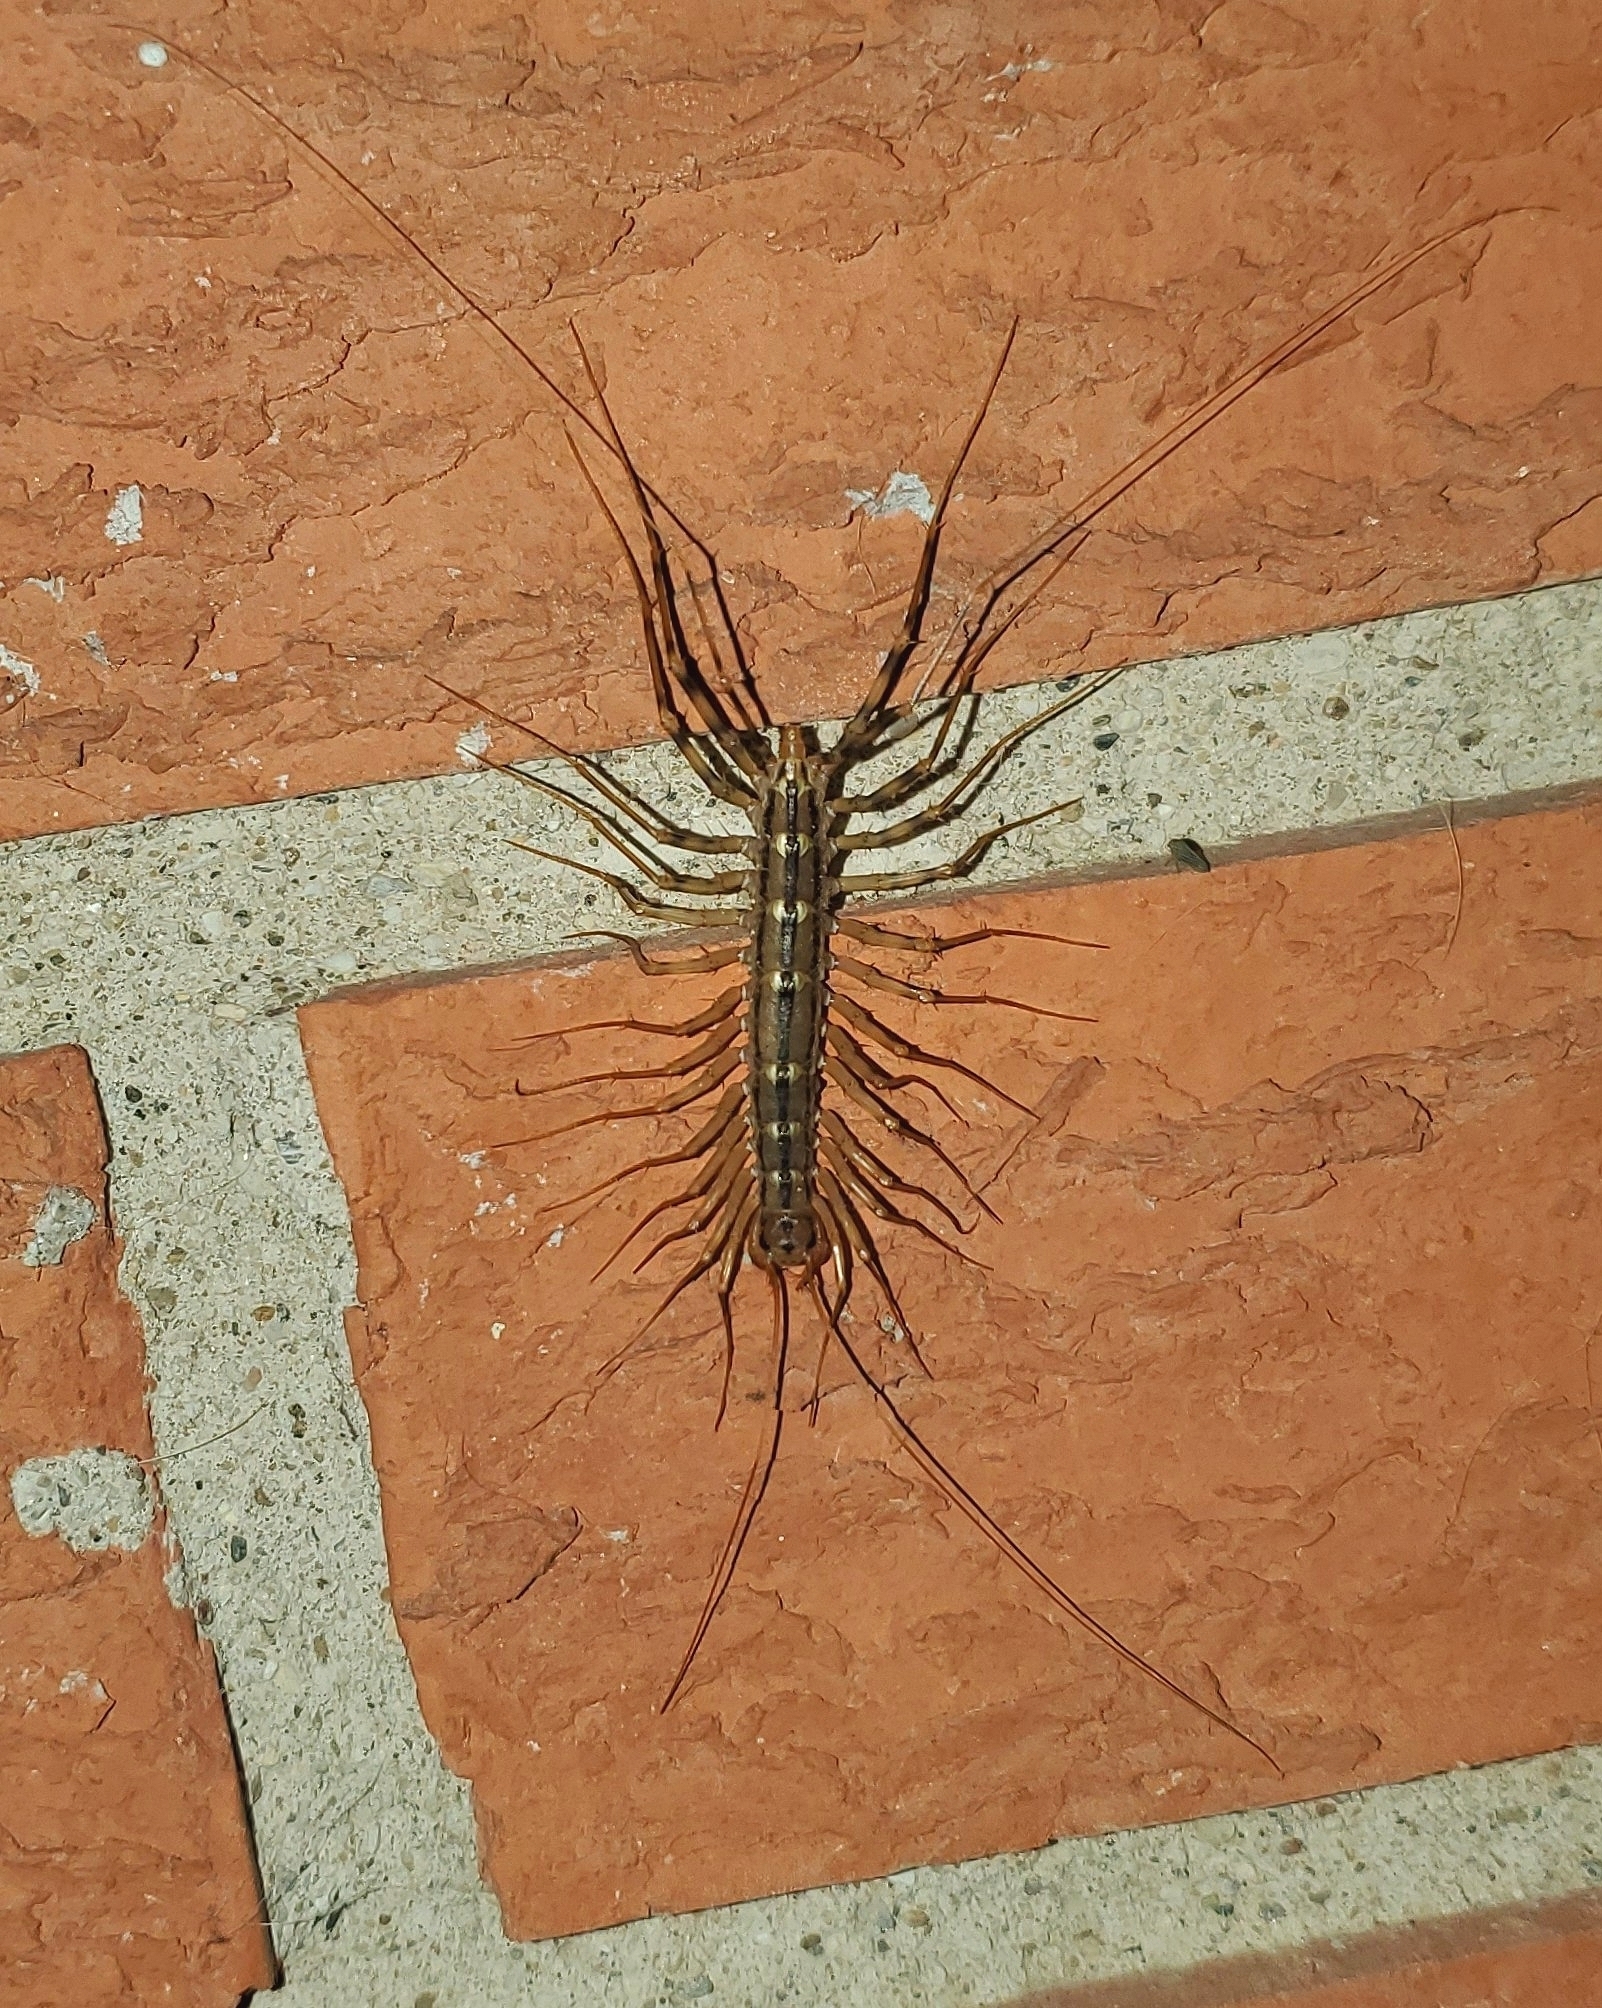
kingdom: Animalia
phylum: Arthropoda
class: Chilopoda
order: Scutigeromorpha
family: Scutigeridae
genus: Scutigera
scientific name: Scutigera coleoptrata
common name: House centipede
